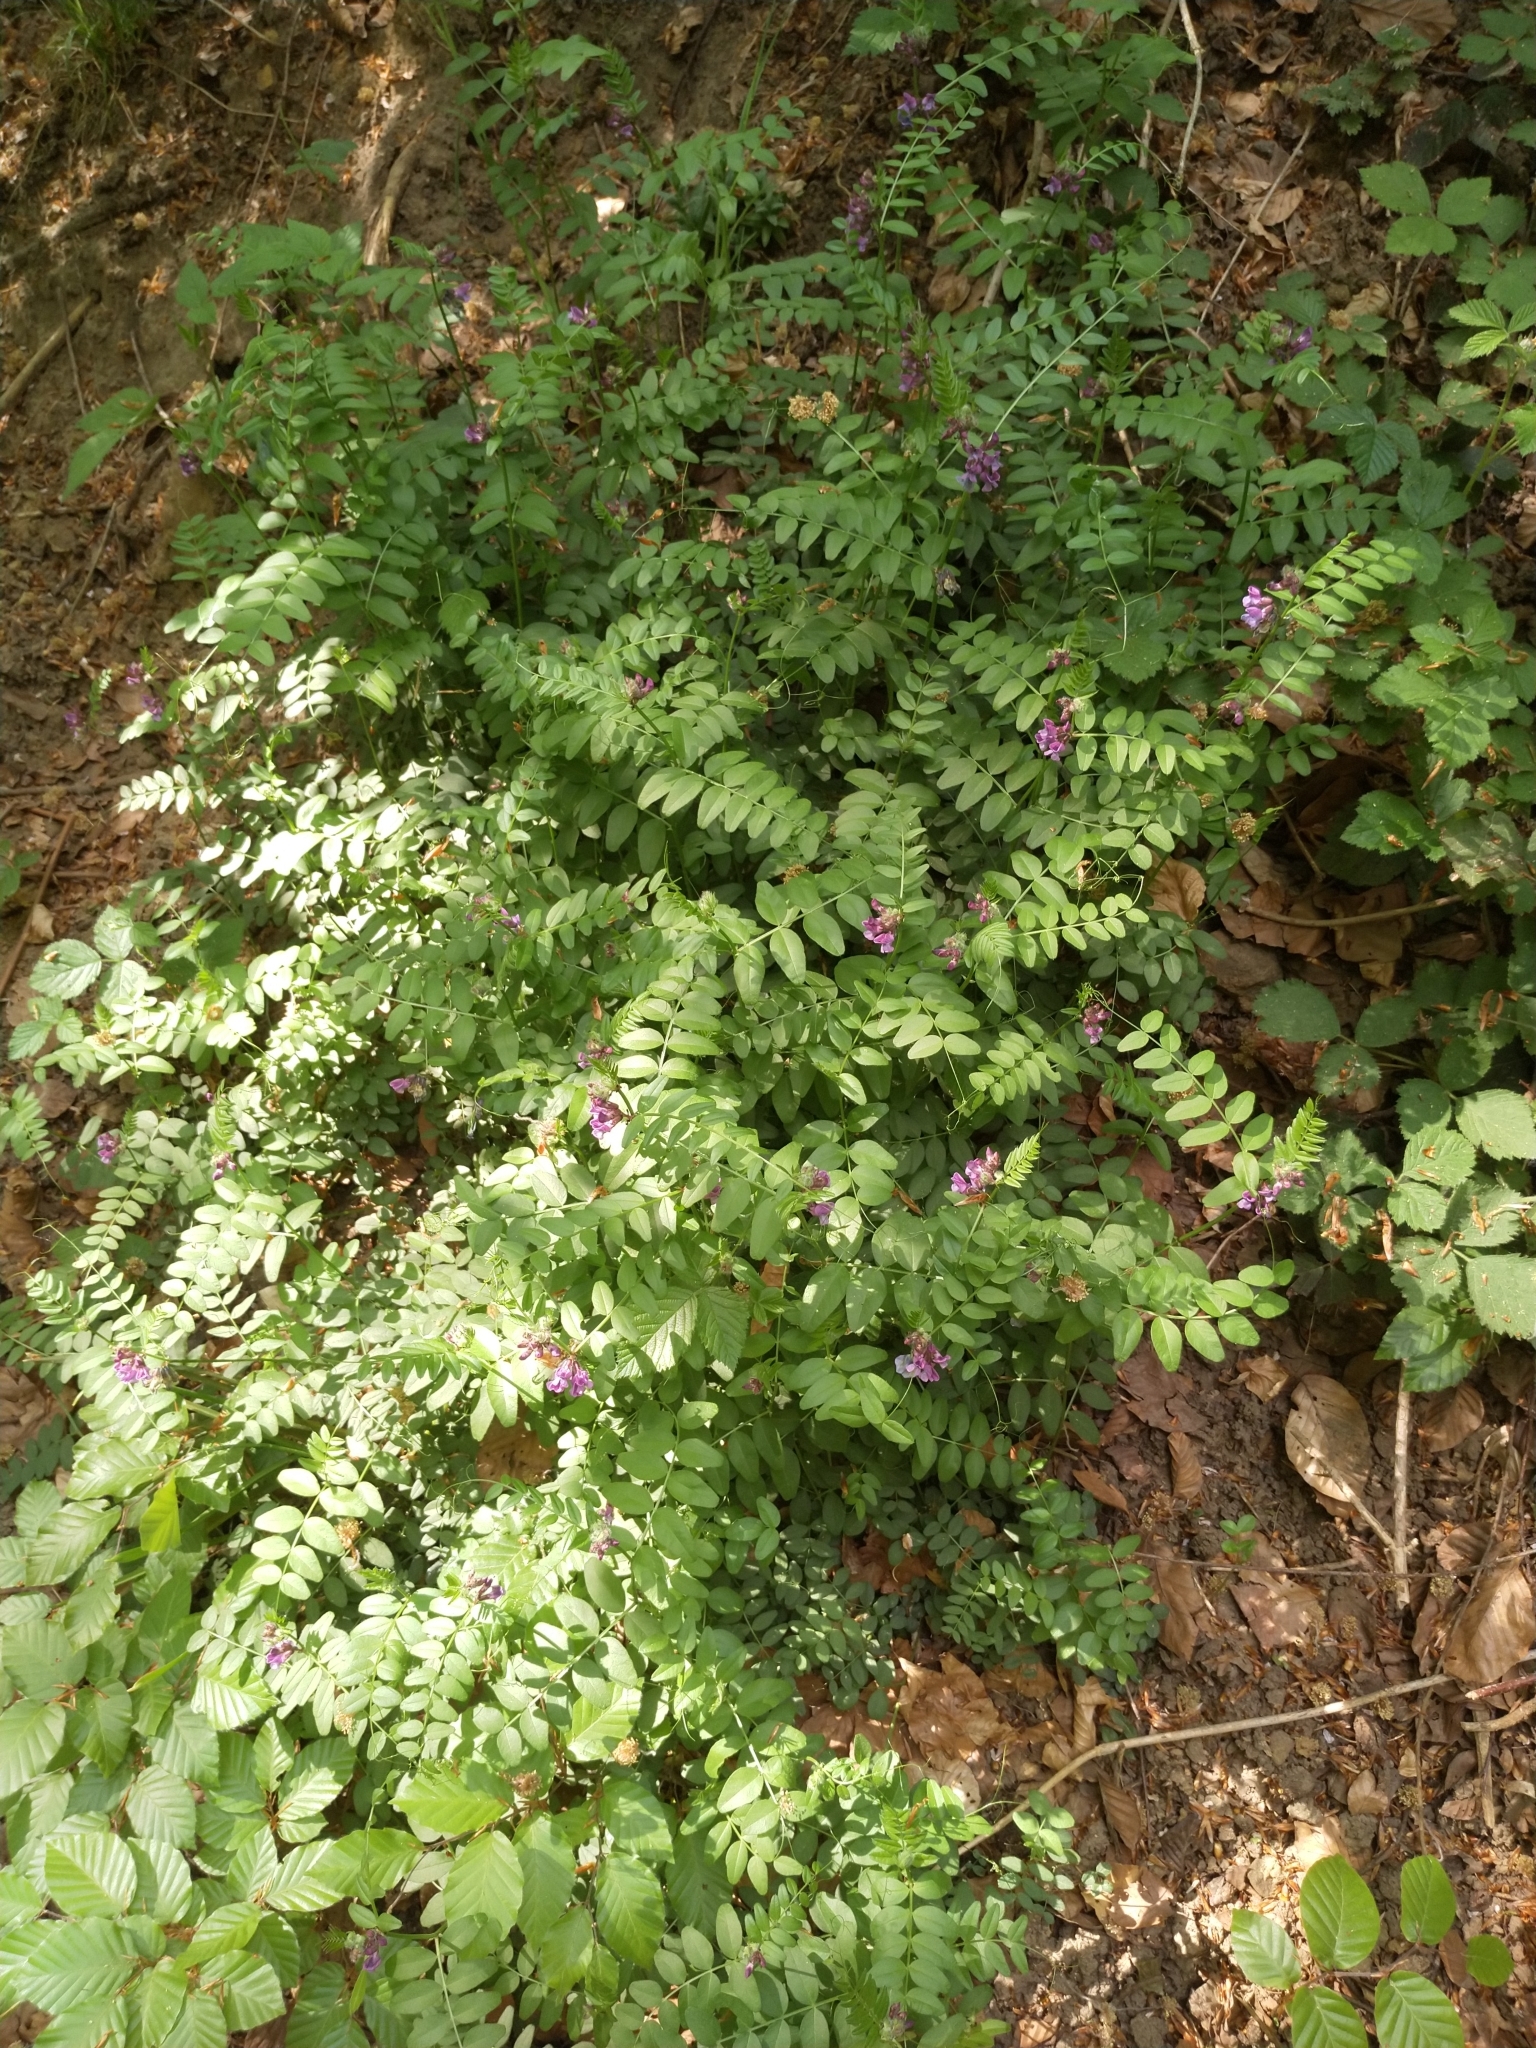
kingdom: Plantae
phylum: Tracheophyta
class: Magnoliopsida
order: Fabales
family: Fabaceae
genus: Vicia
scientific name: Vicia sepium
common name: Bush vetch
